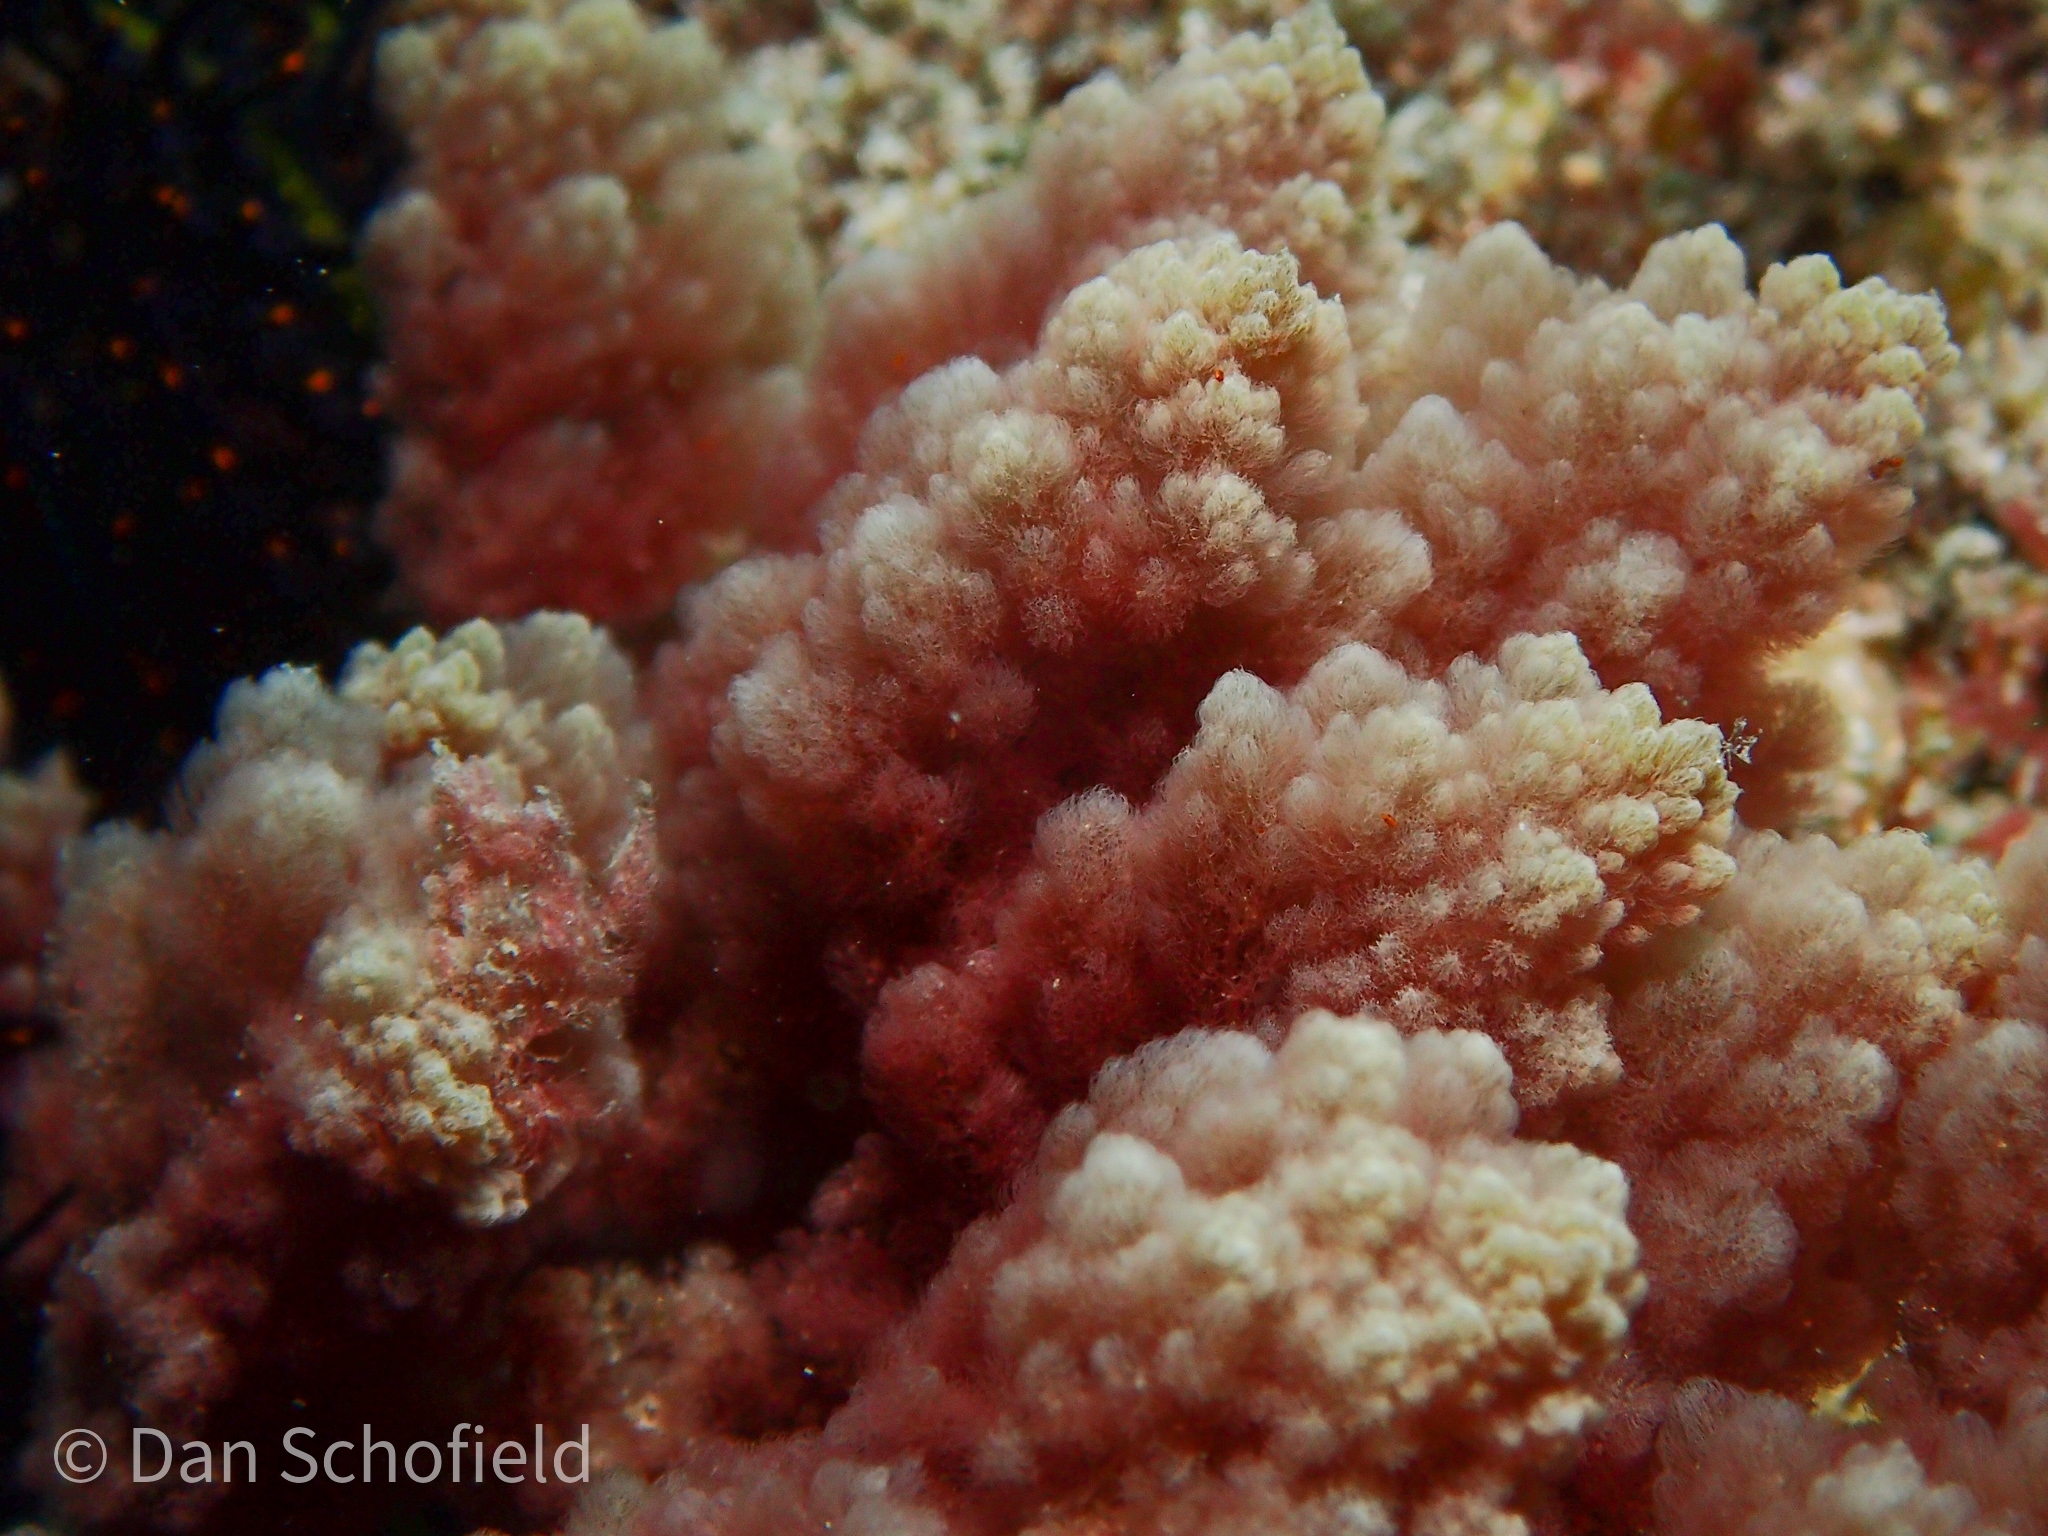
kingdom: Plantae
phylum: Rhodophyta
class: Florideophyceae
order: Bonnemaisoniales
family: Bonnemaisoniaceae
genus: Asparagopsis
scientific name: Asparagopsis taxiformis
